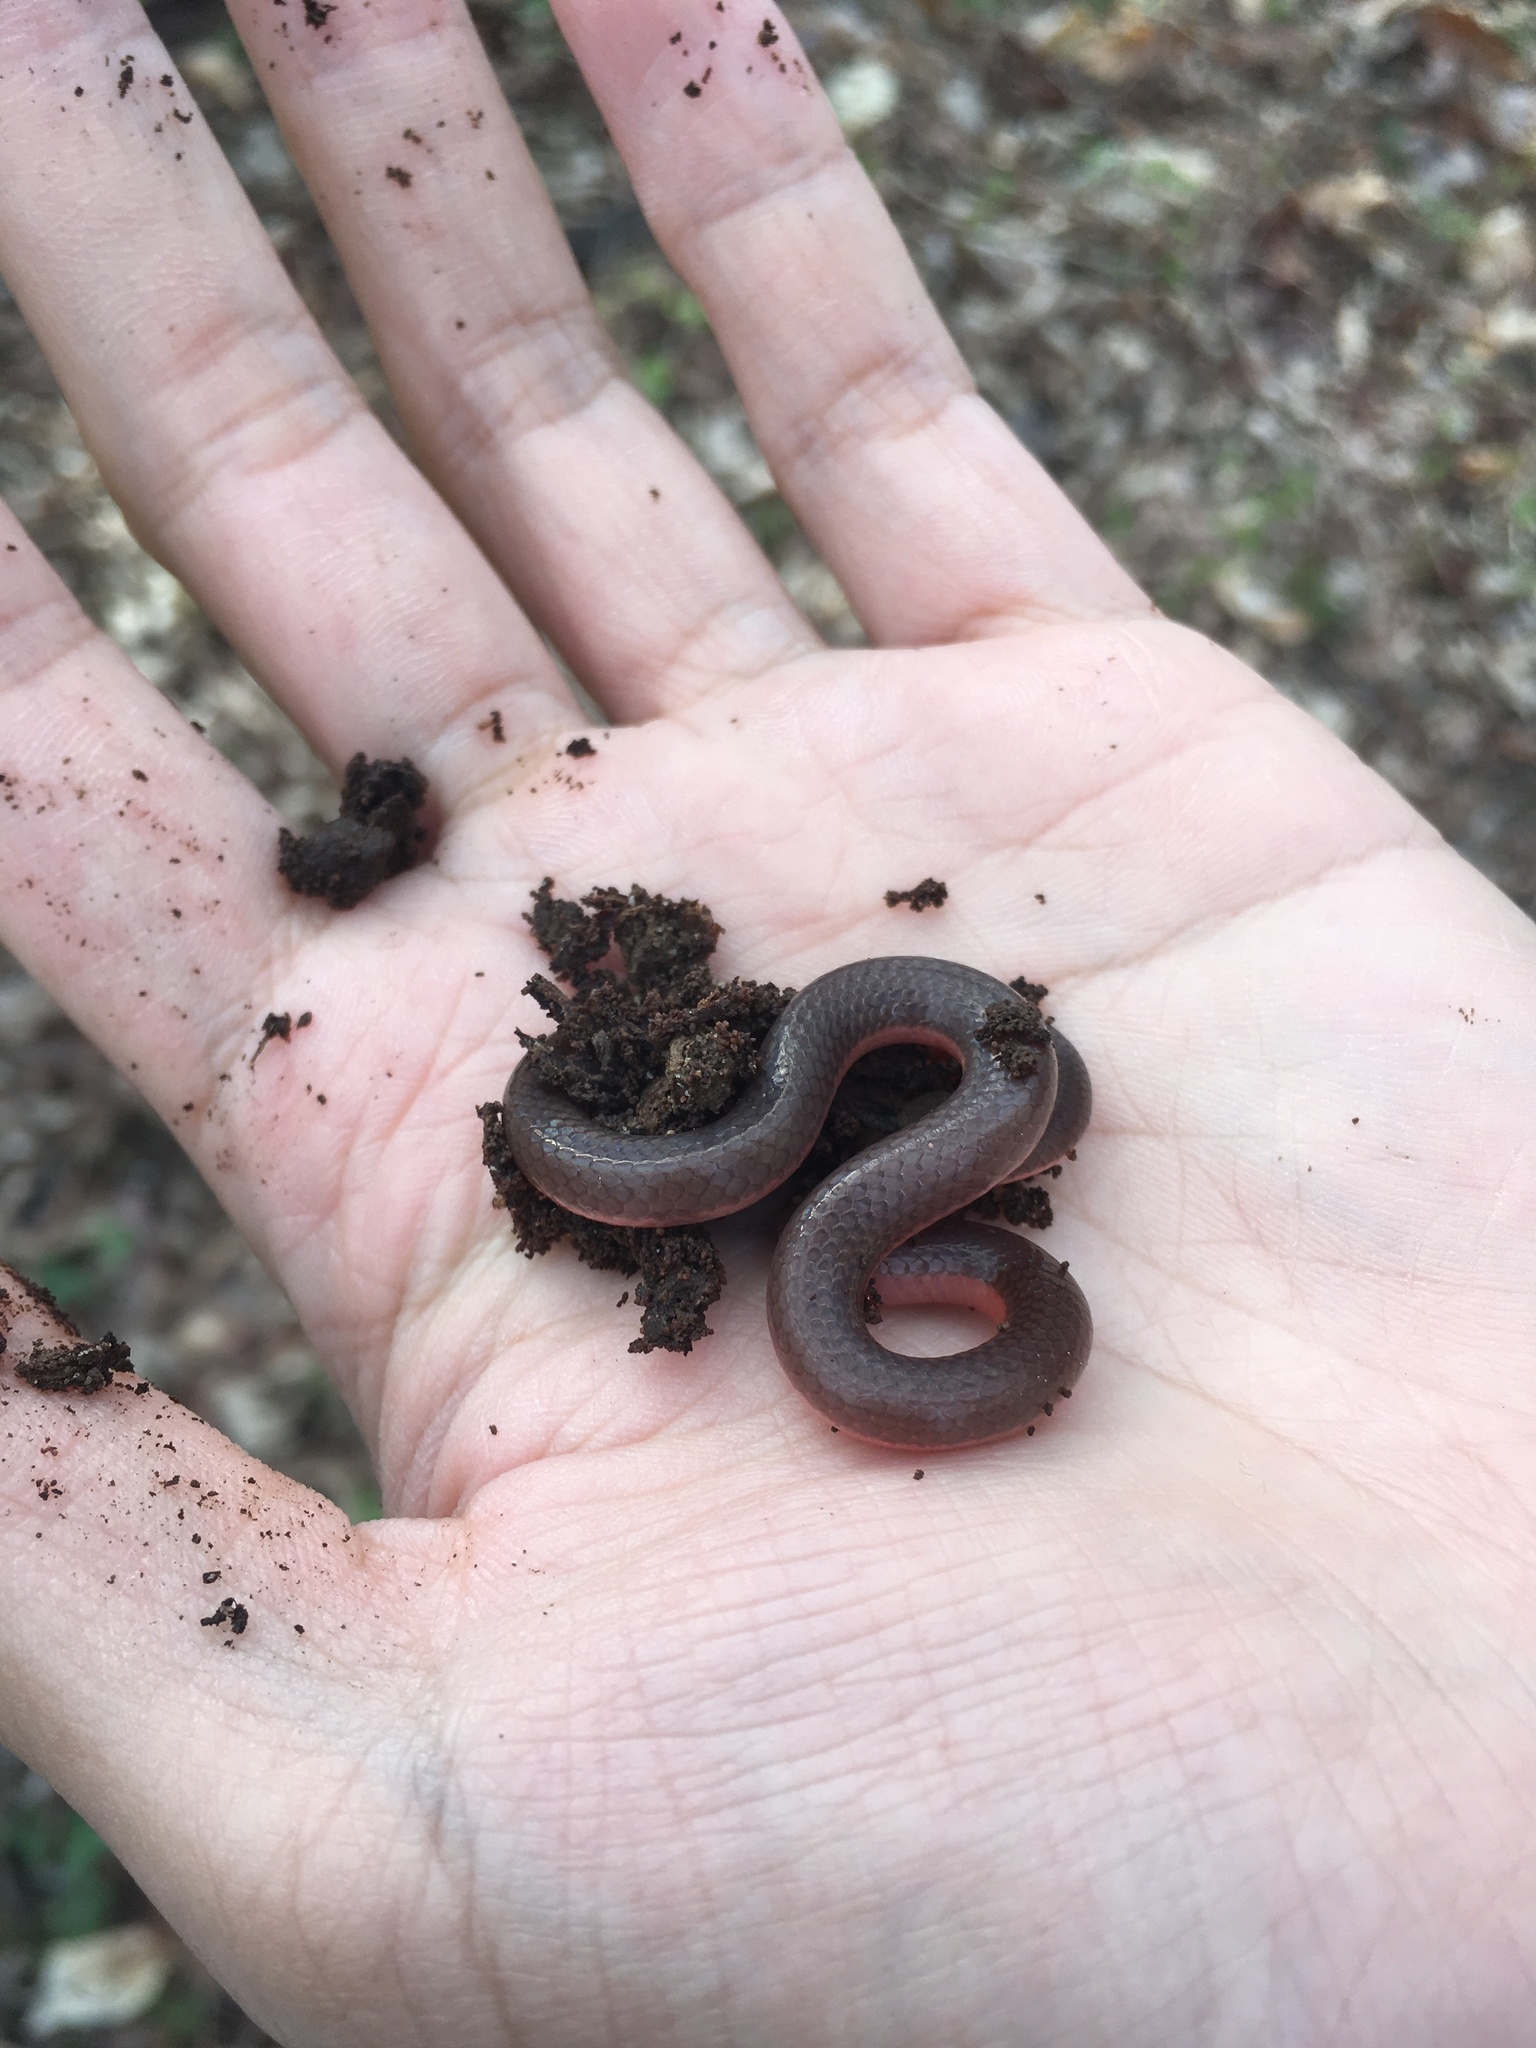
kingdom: Animalia
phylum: Chordata
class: Squamata
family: Colubridae
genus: Carphophis
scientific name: Carphophis amoenus
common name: Eastern worm snake
